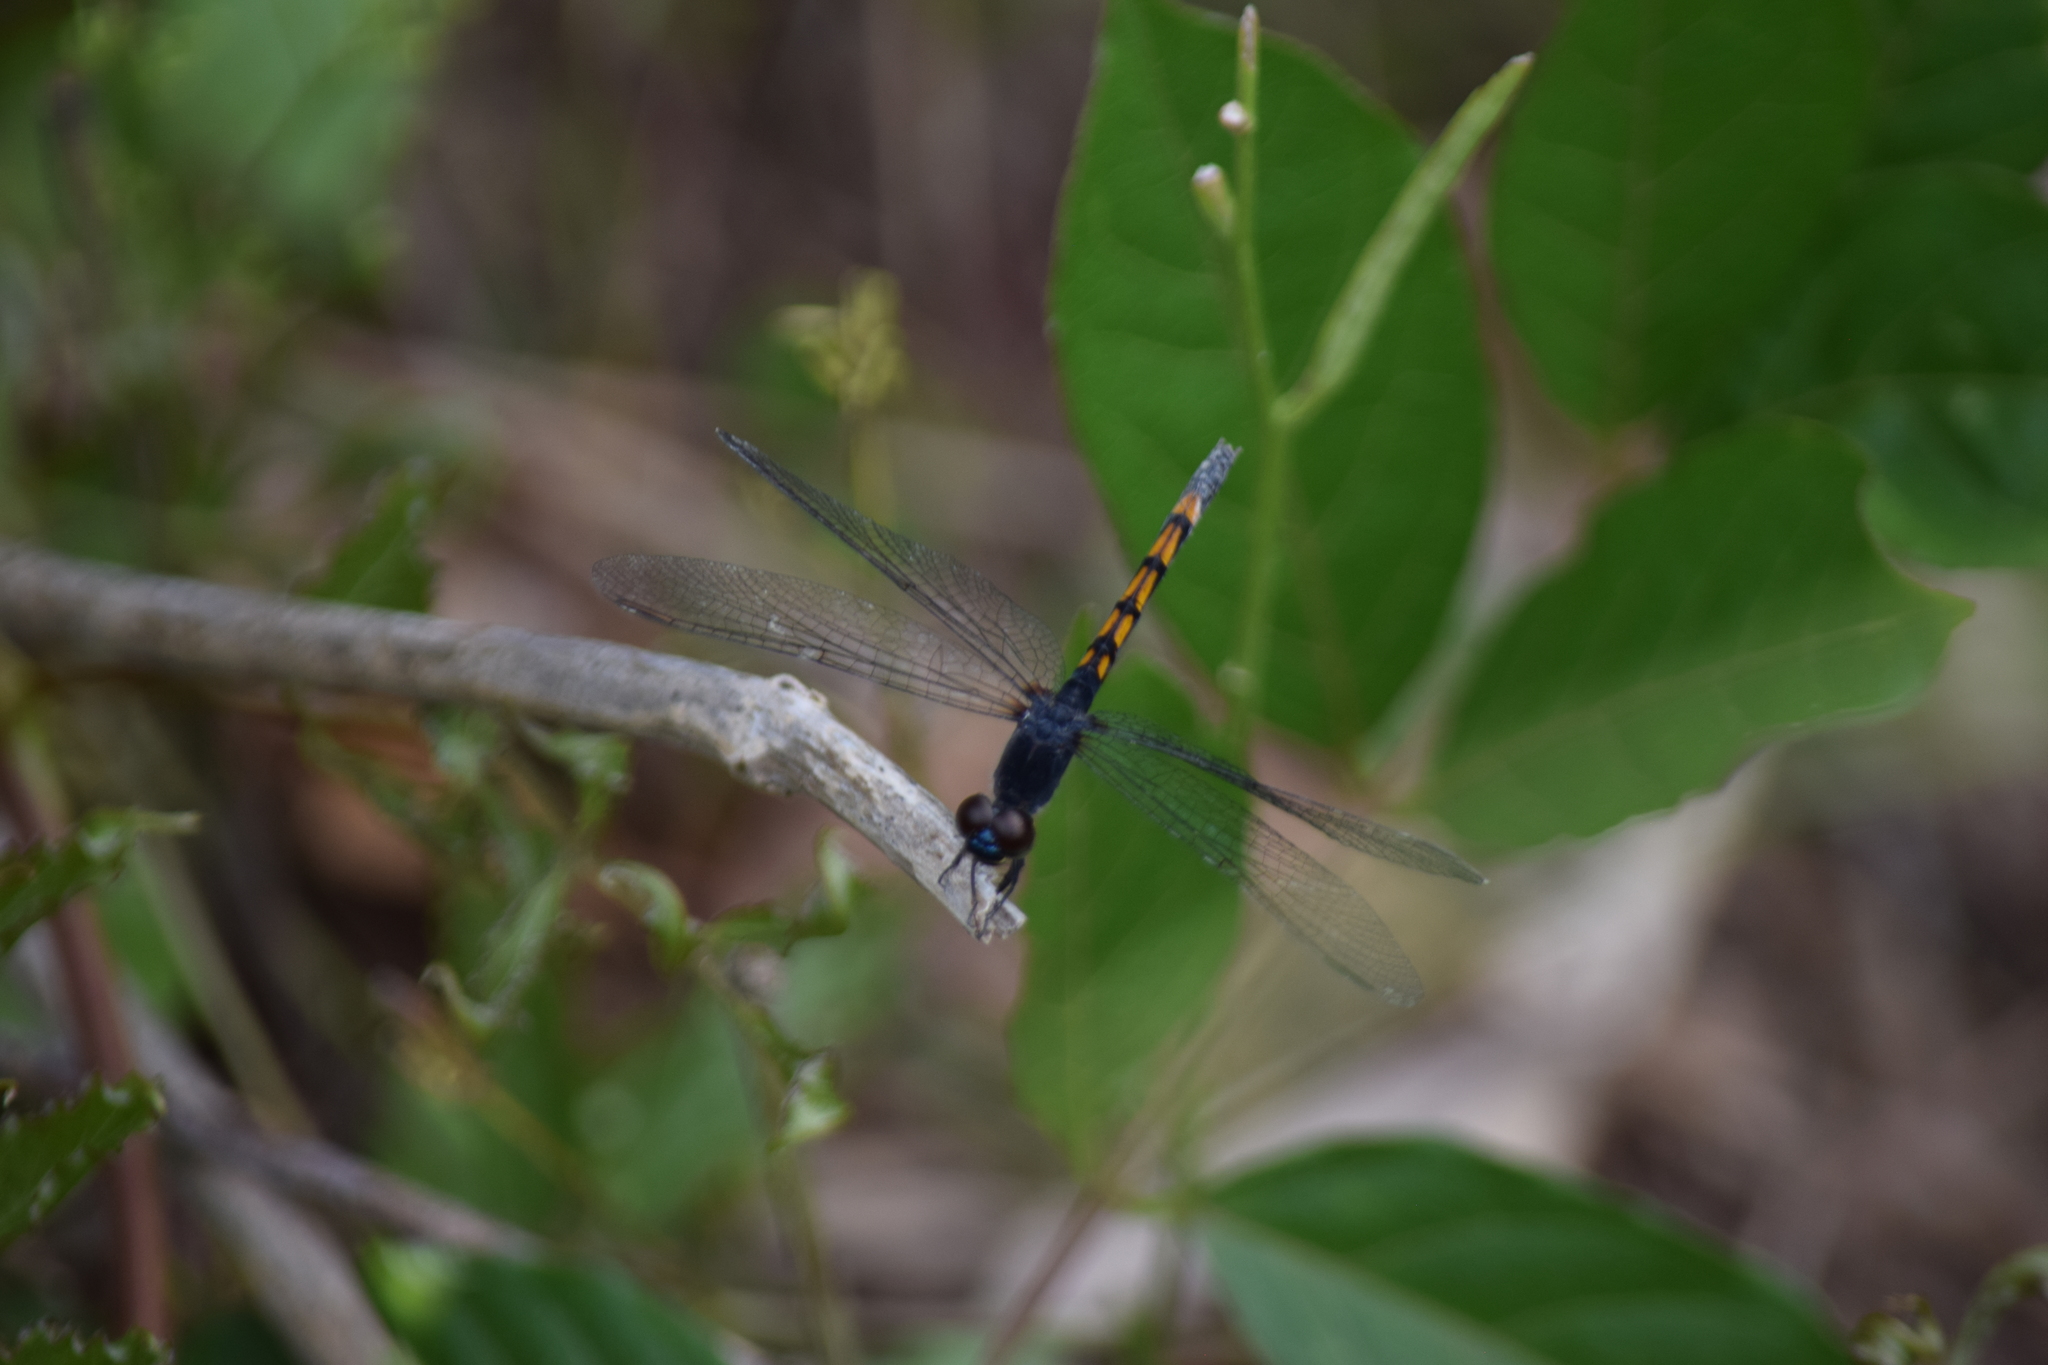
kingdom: Animalia
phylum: Arthropoda
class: Insecta
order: Odonata
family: Libellulidae
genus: Erythrodiplax
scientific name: Erythrodiplax berenice
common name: Seaside dragonlet
